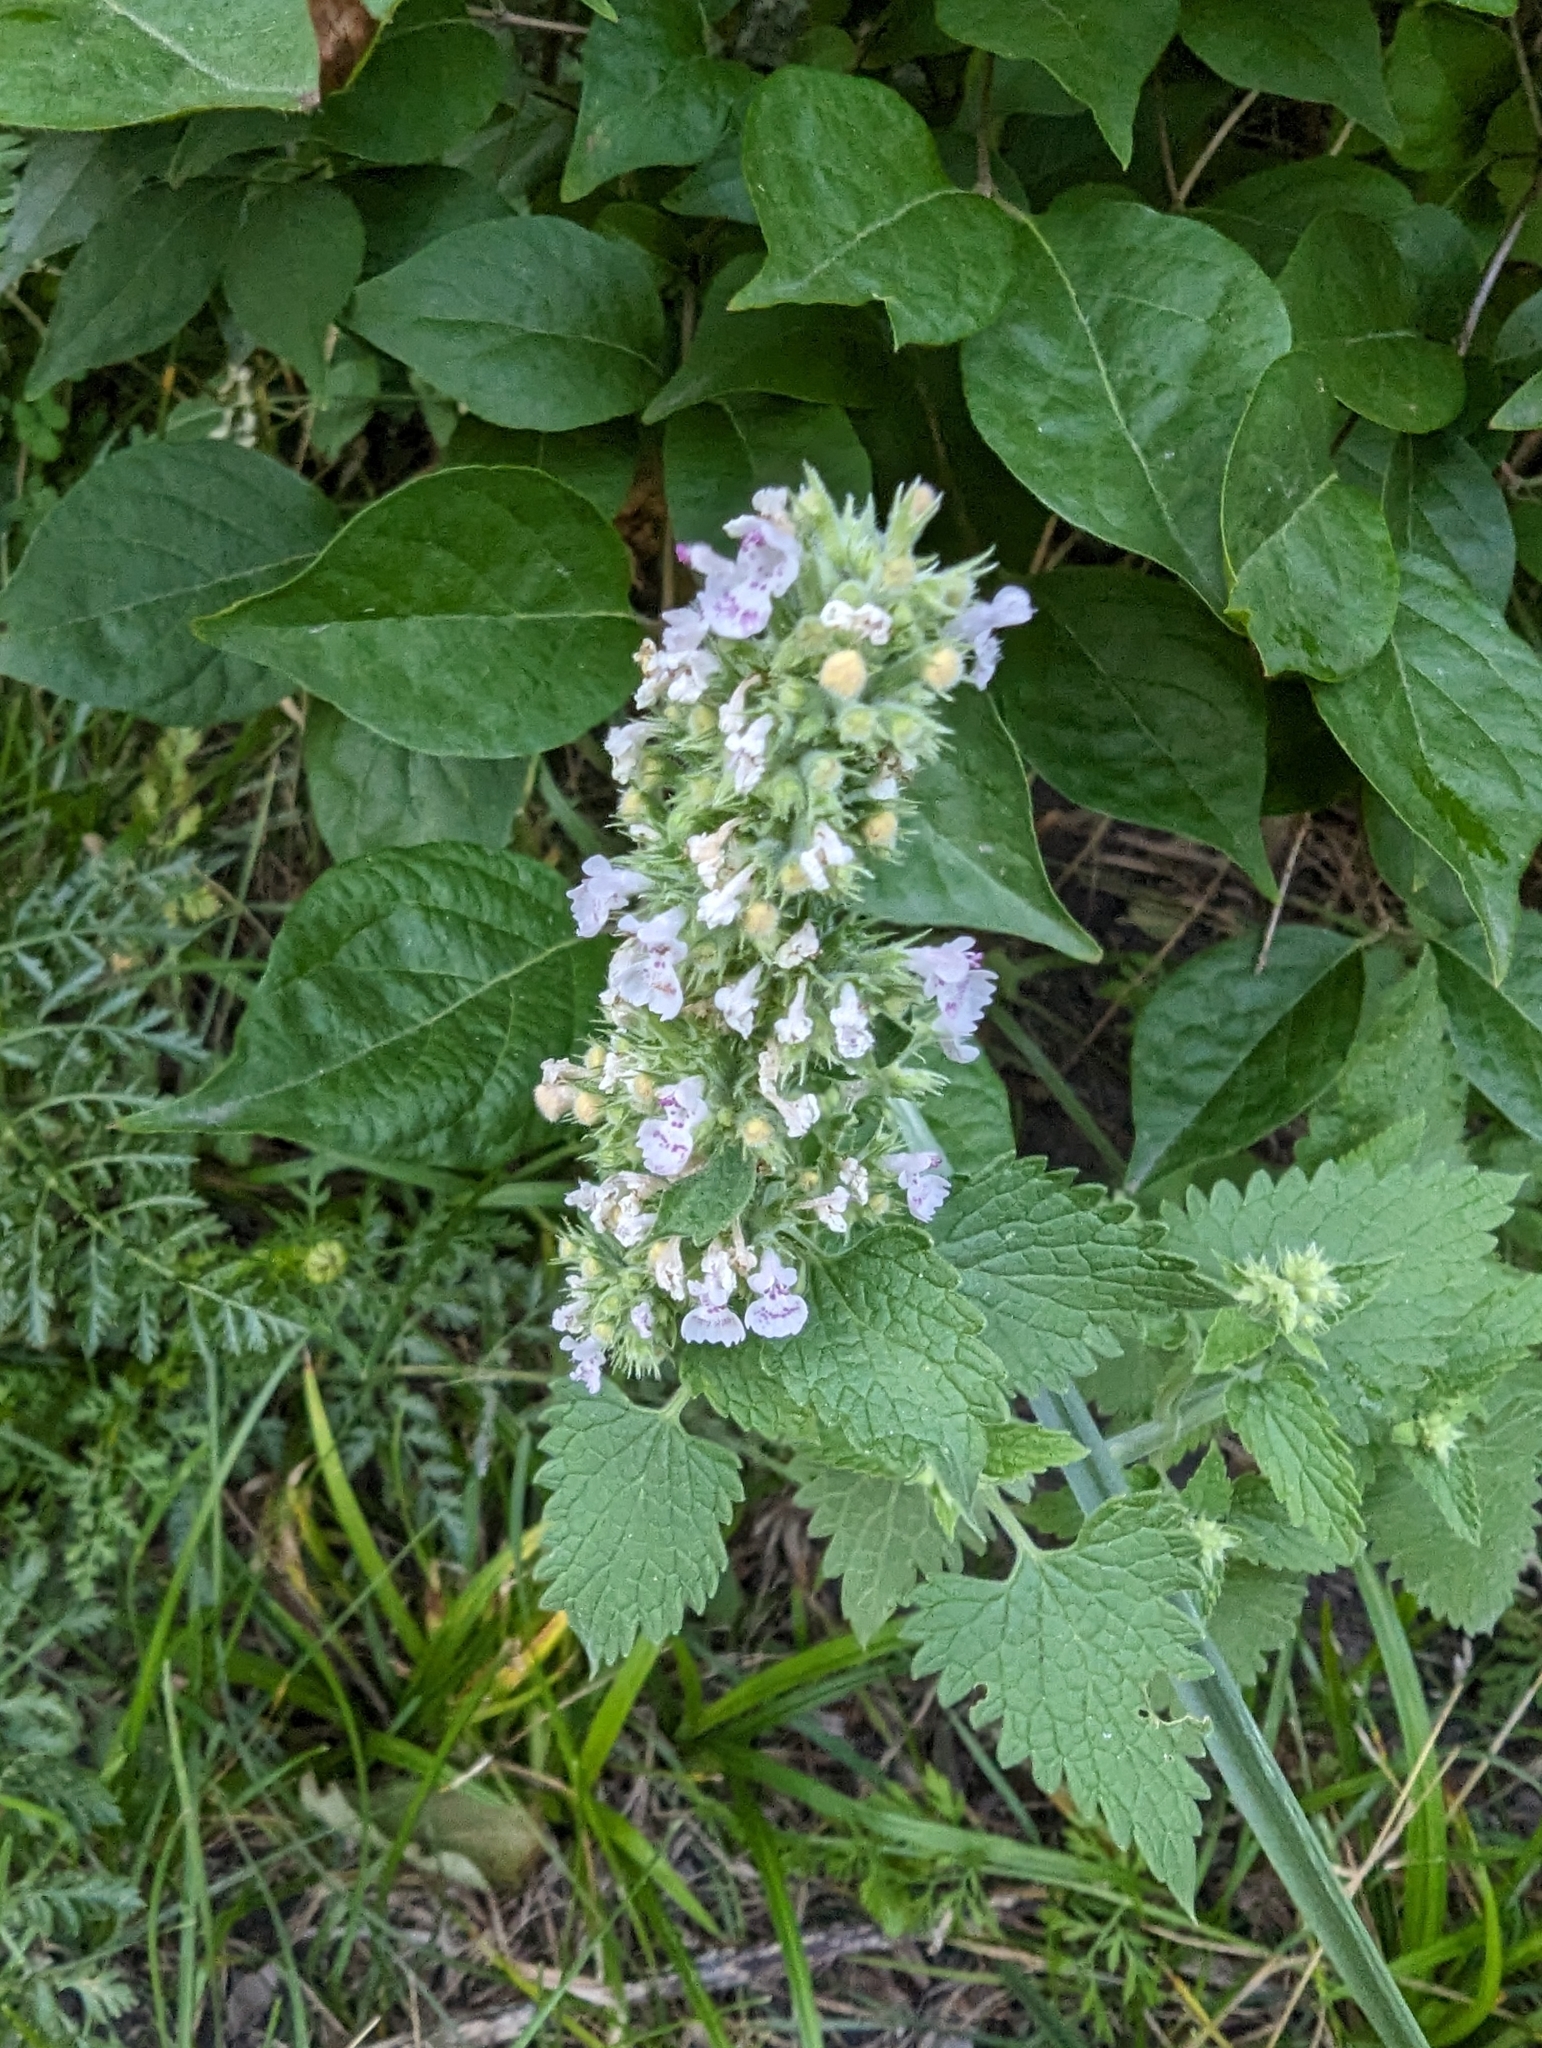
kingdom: Plantae
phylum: Tracheophyta
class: Magnoliopsida
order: Lamiales
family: Lamiaceae
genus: Nepeta
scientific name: Nepeta cataria
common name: Catnip
